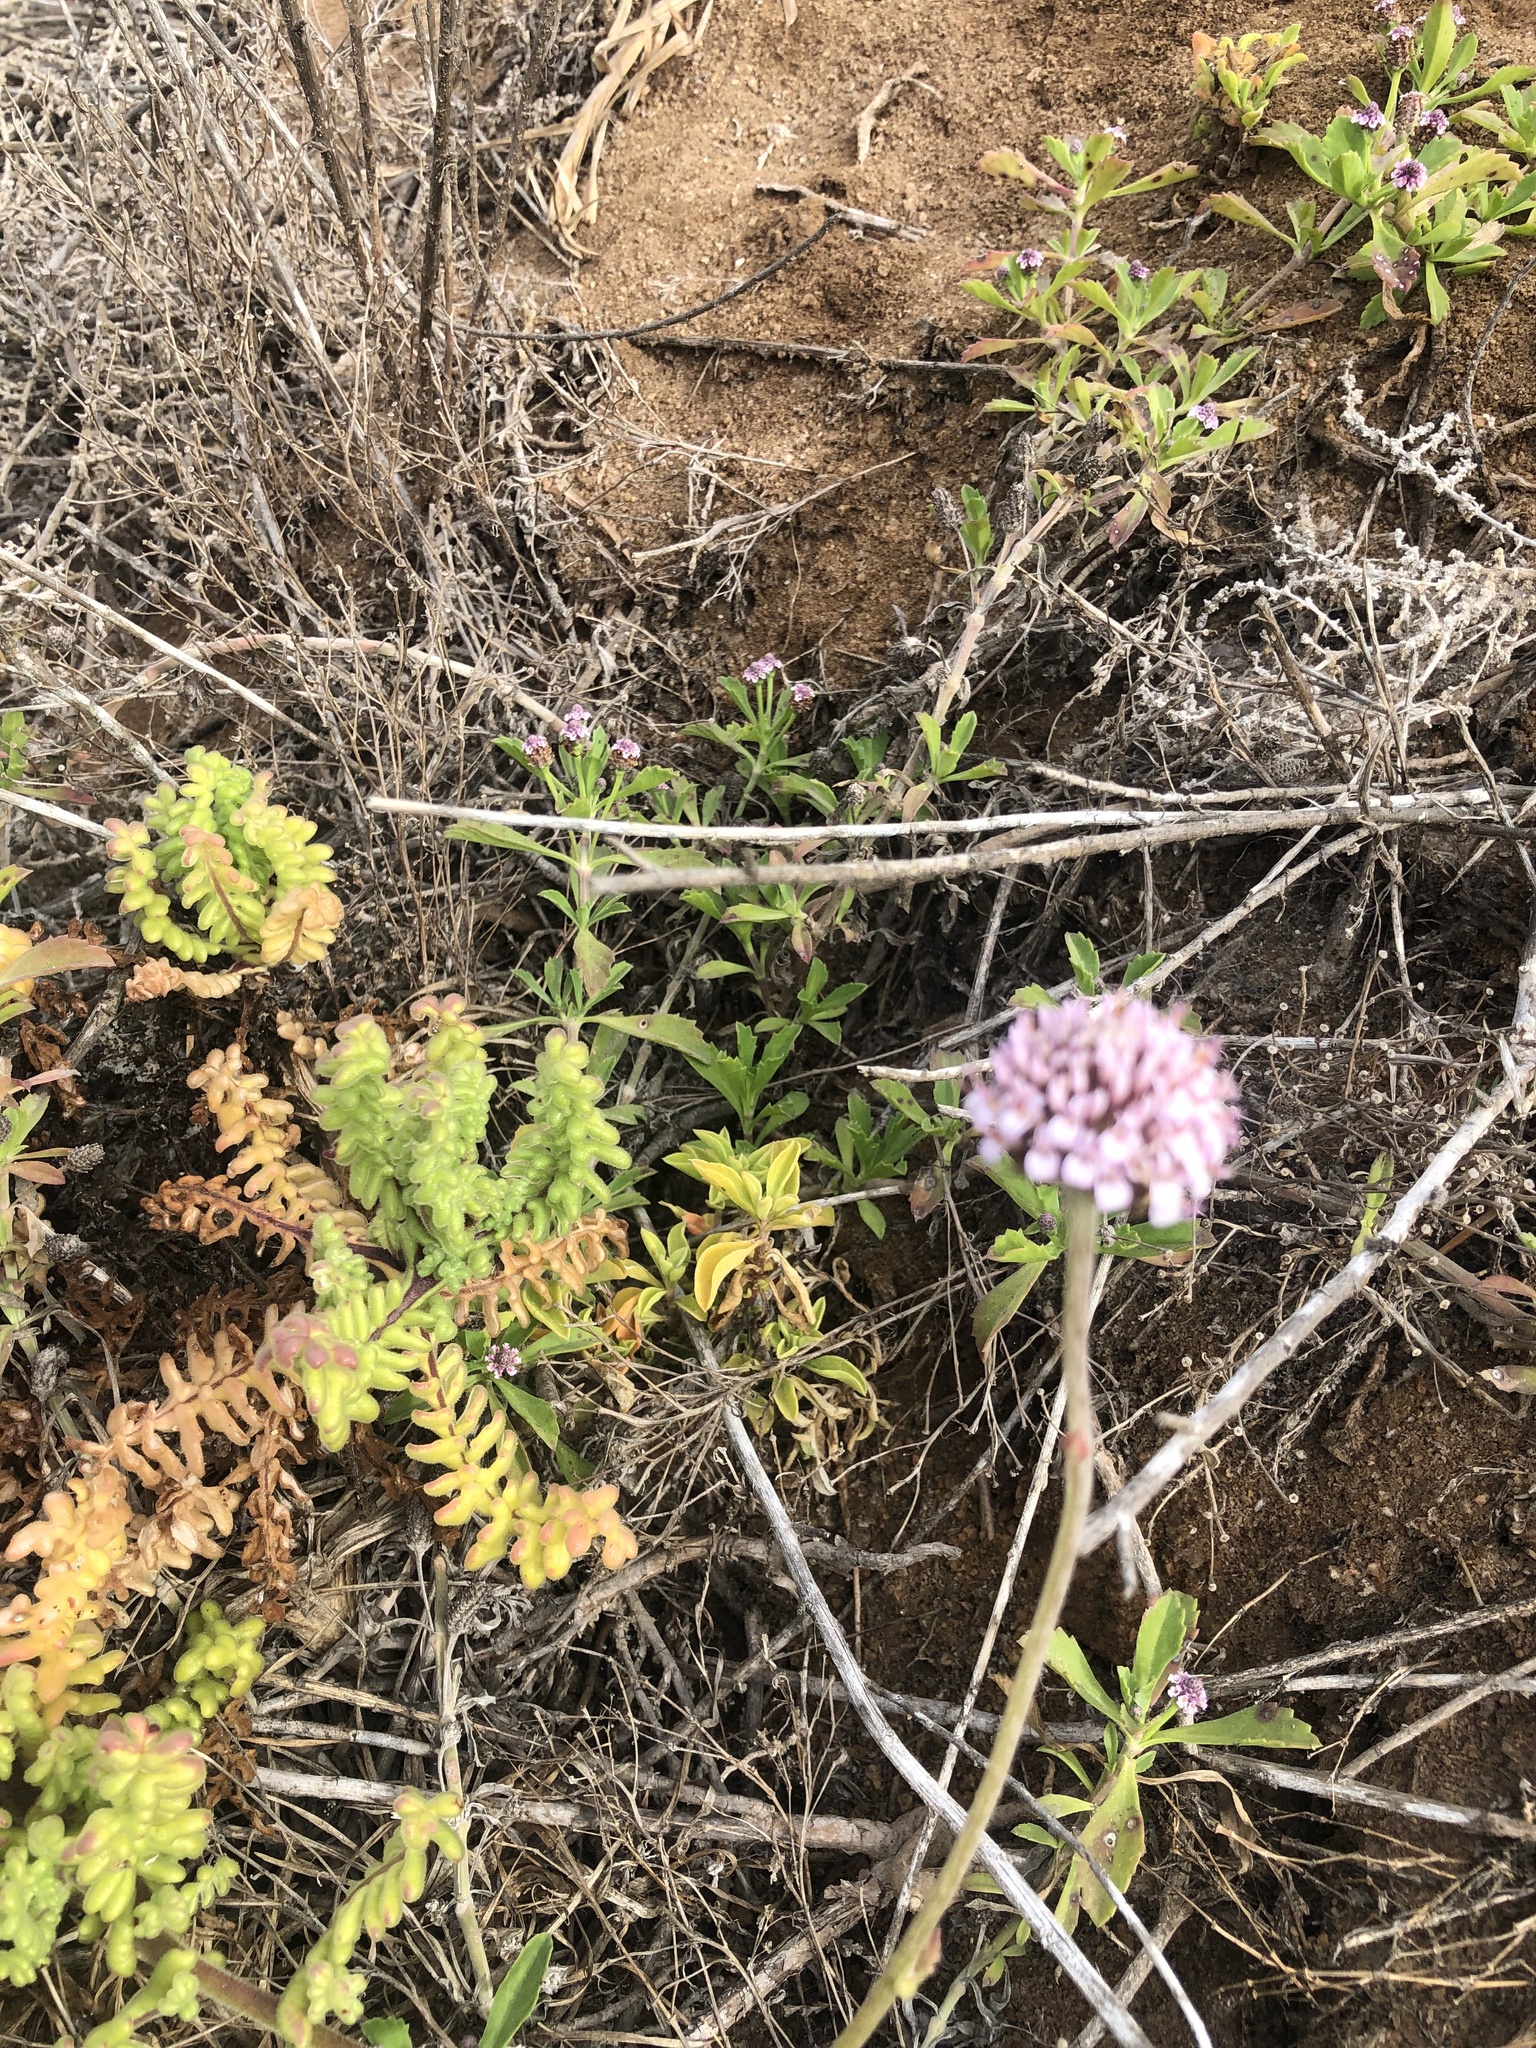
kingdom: Plantae
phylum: Tracheophyta
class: Magnoliopsida
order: Asterales
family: Asteraceae
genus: Polyachyrus
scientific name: Polyachyrus poeppigii
